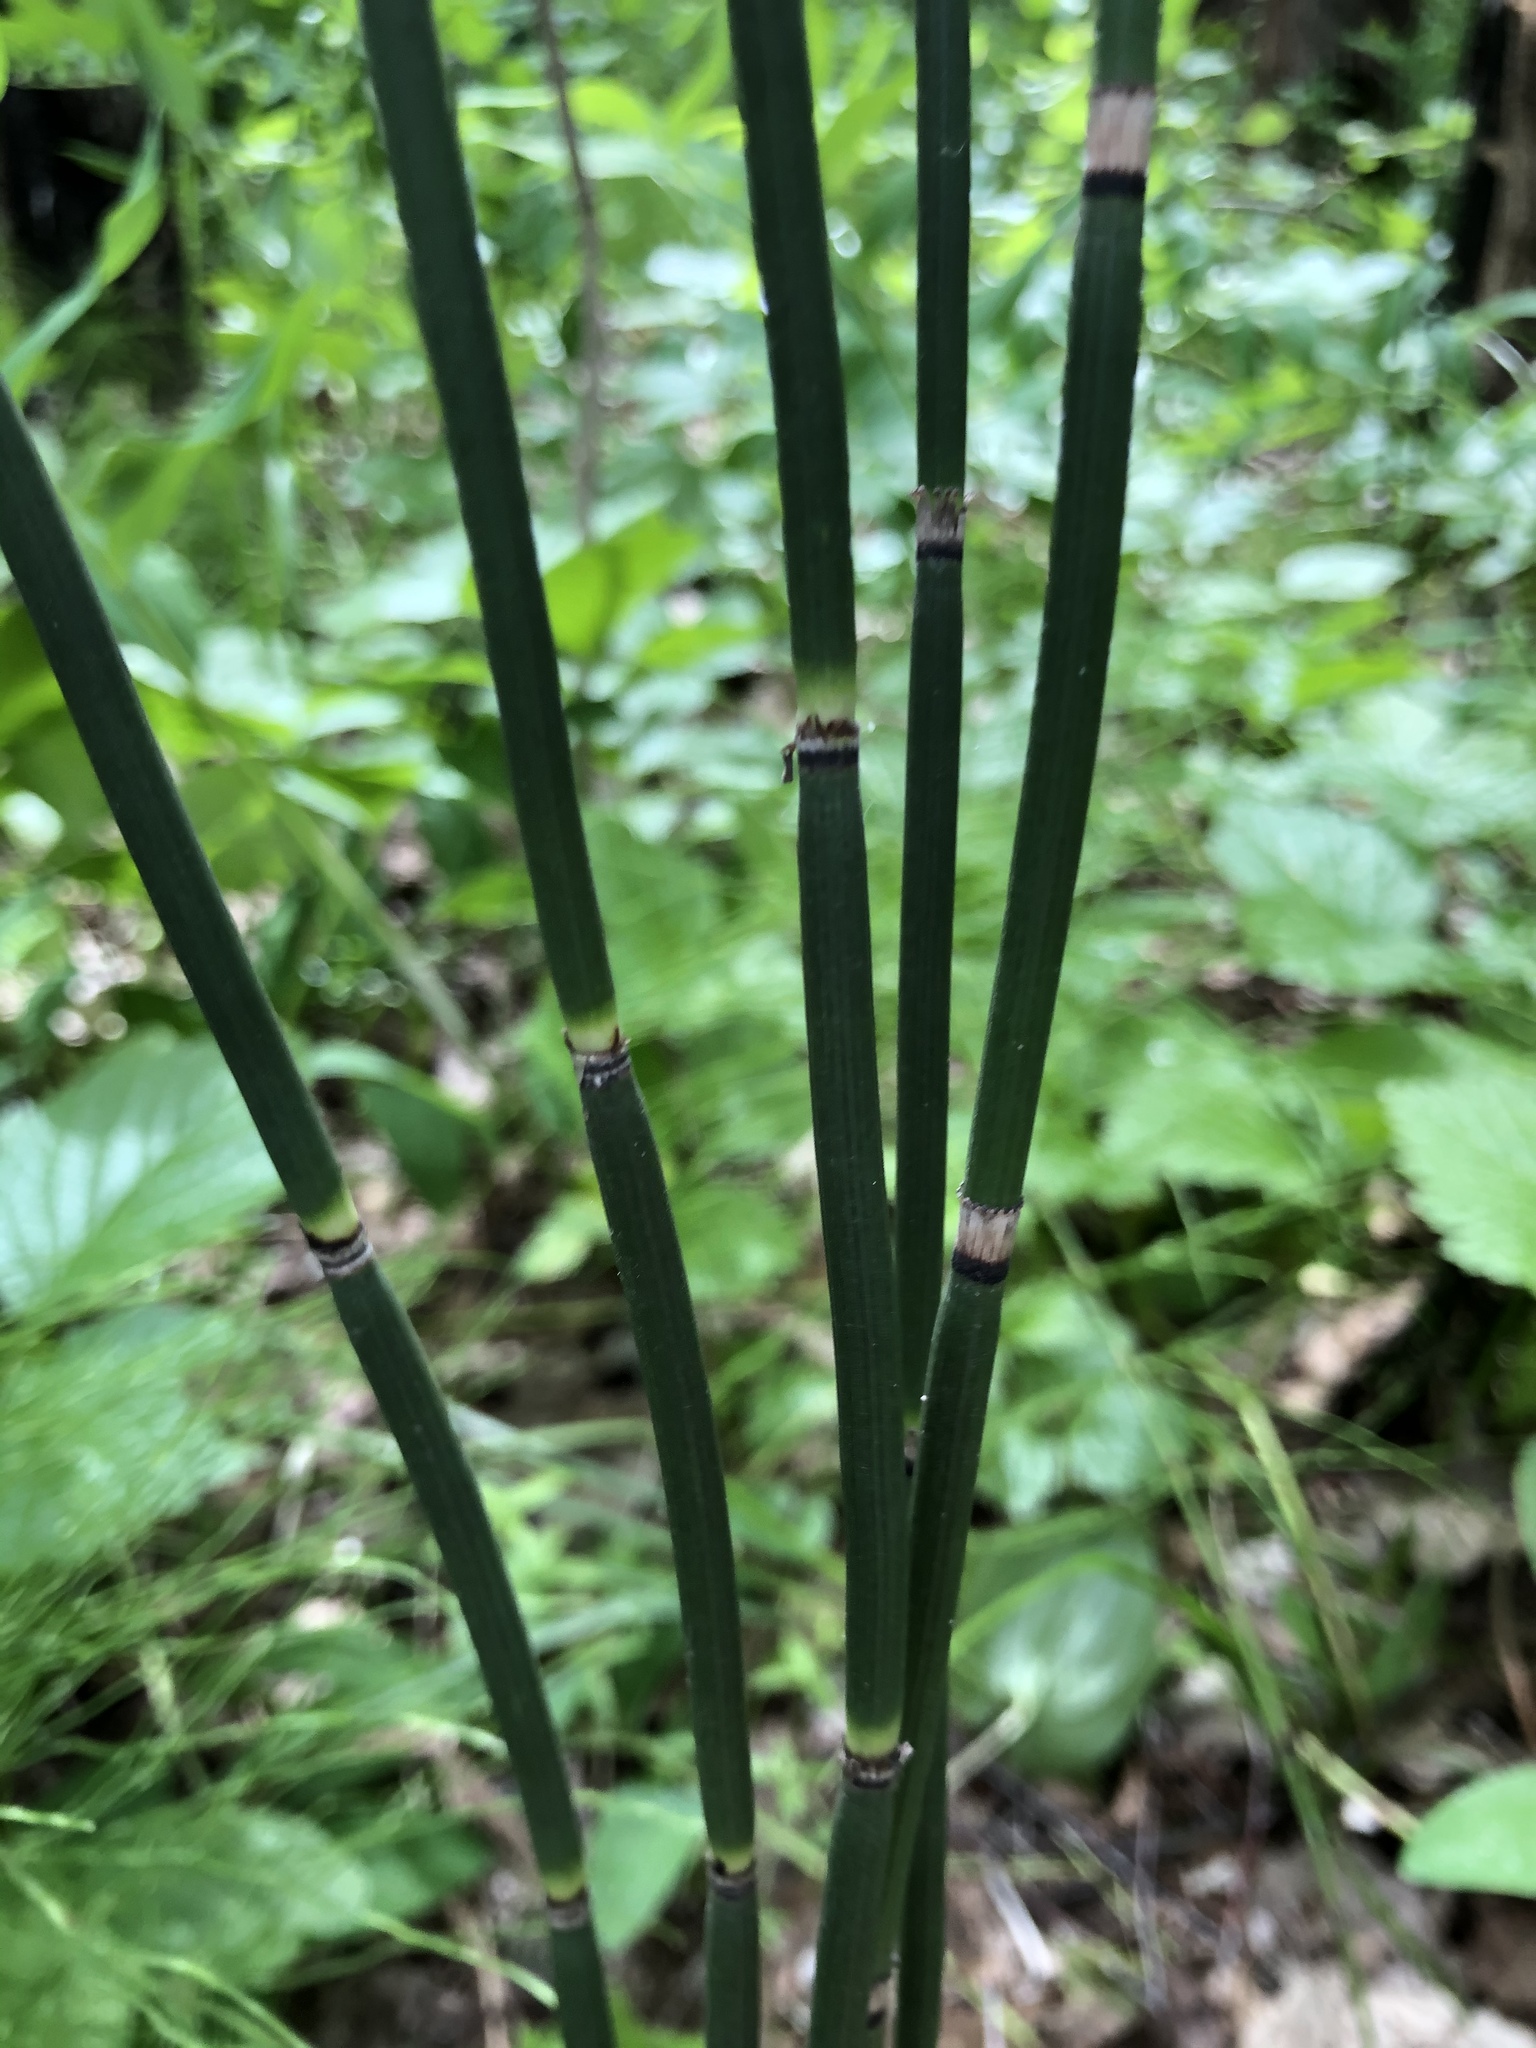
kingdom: Plantae
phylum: Tracheophyta
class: Polypodiopsida
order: Equisetales
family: Equisetaceae
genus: Equisetum
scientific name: Equisetum hyemale
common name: Rough horsetail
